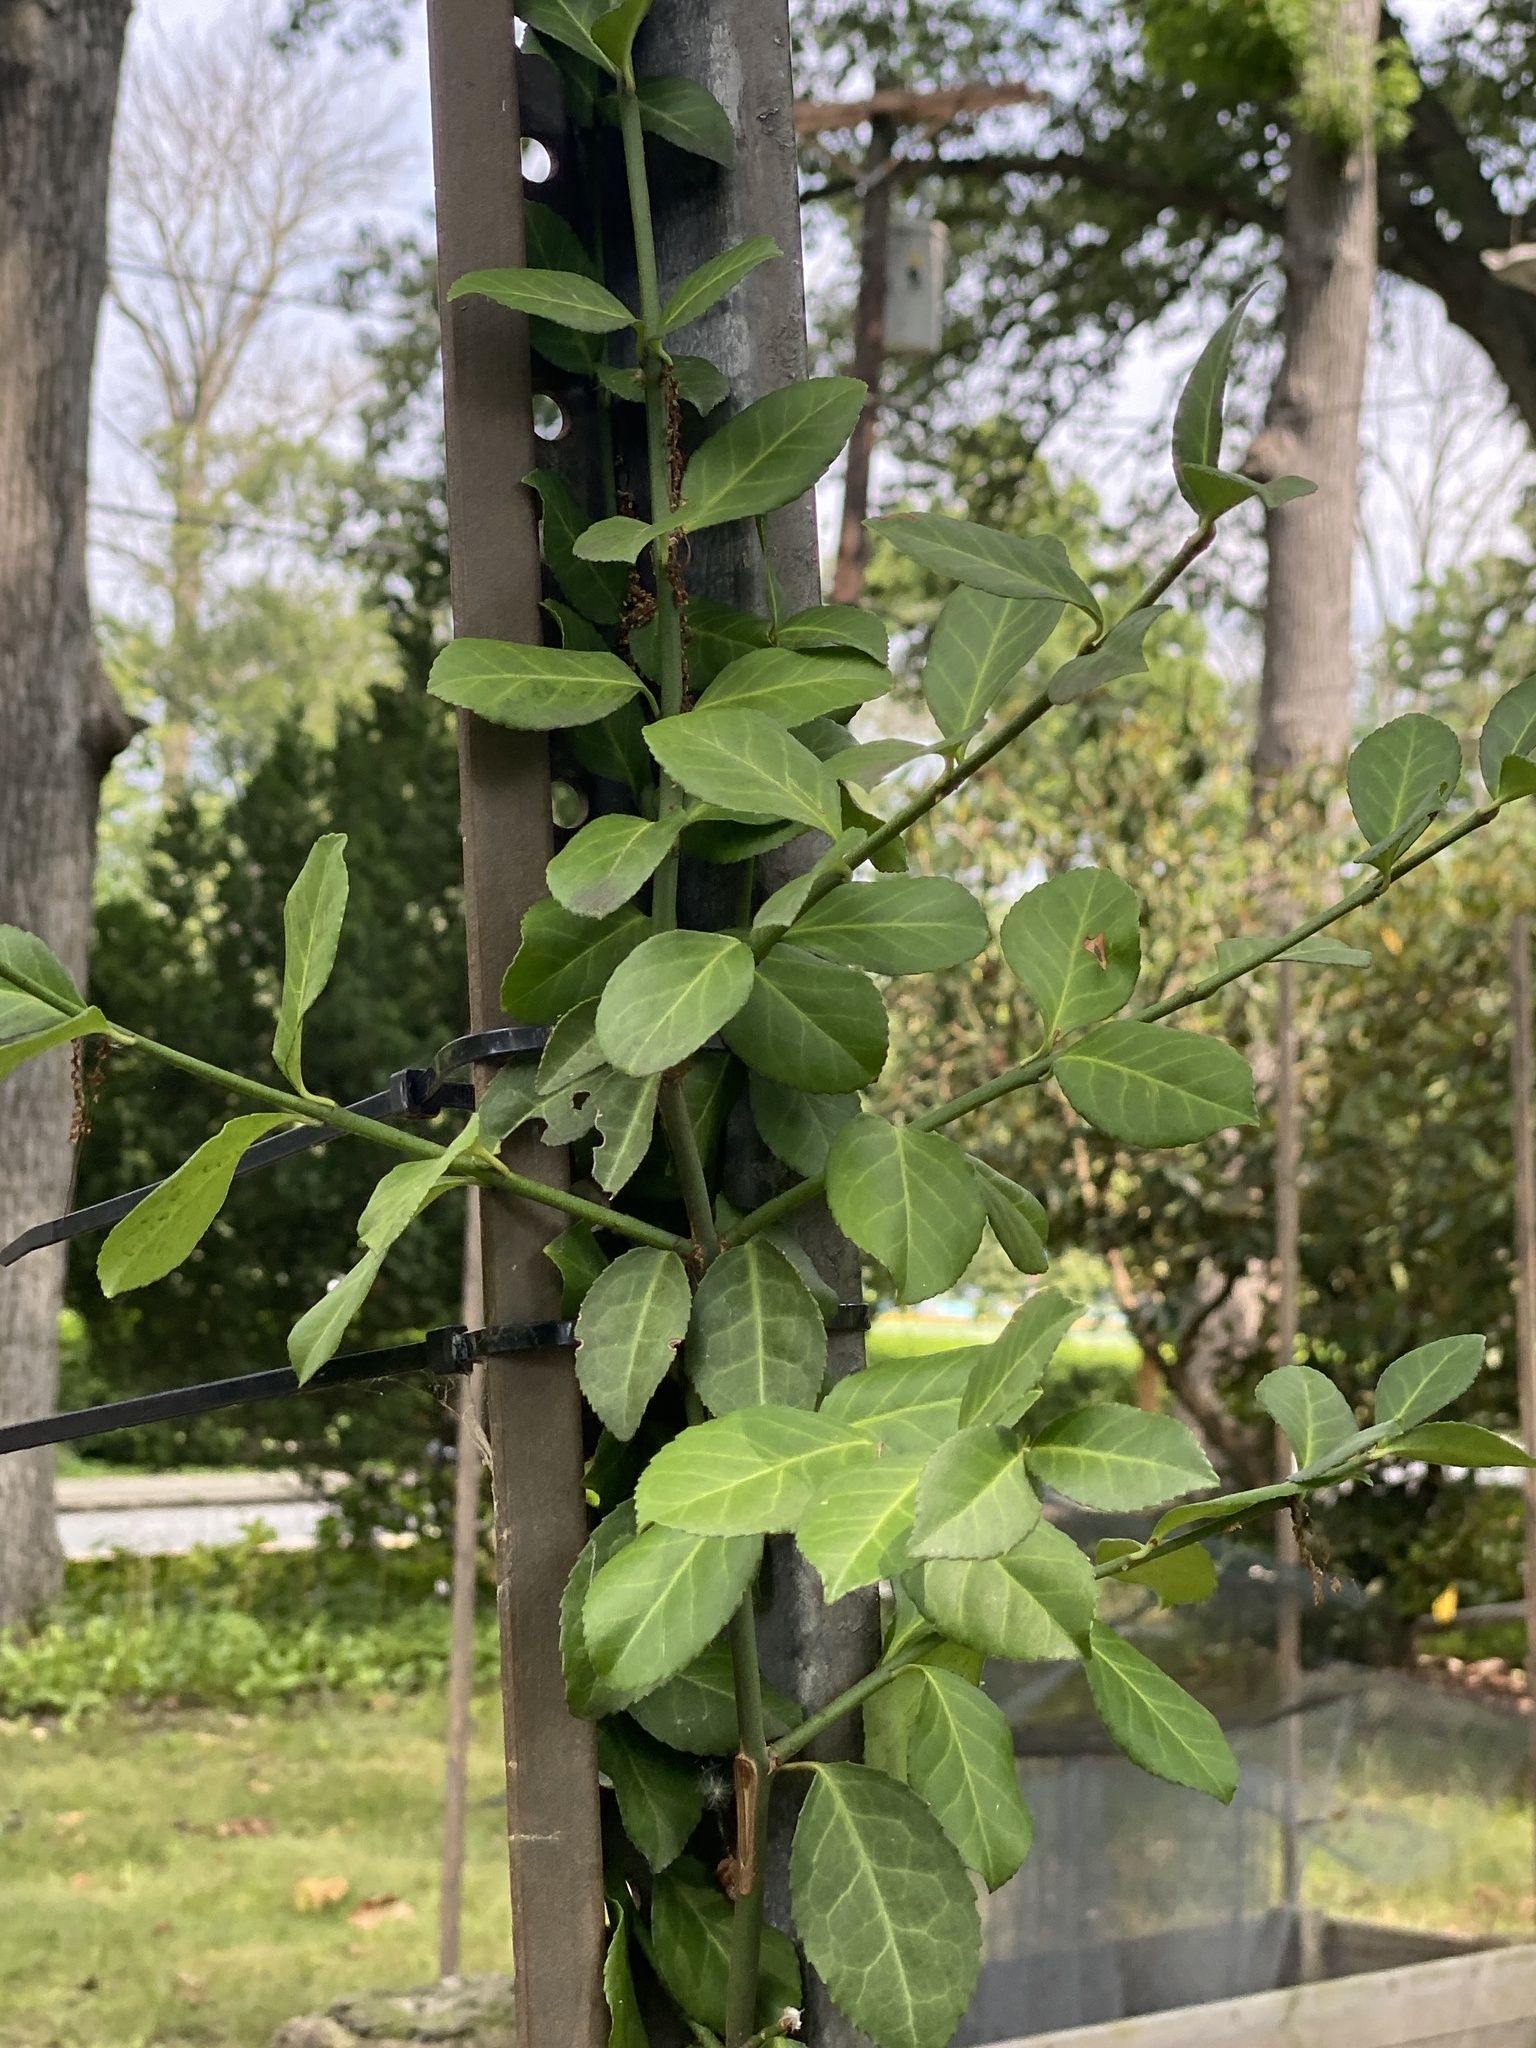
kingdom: Plantae
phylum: Tracheophyta
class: Magnoliopsida
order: Celastrales
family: Celastraceae
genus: Euonymus
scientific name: Euonymus fortunei
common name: Climbing euonymus
